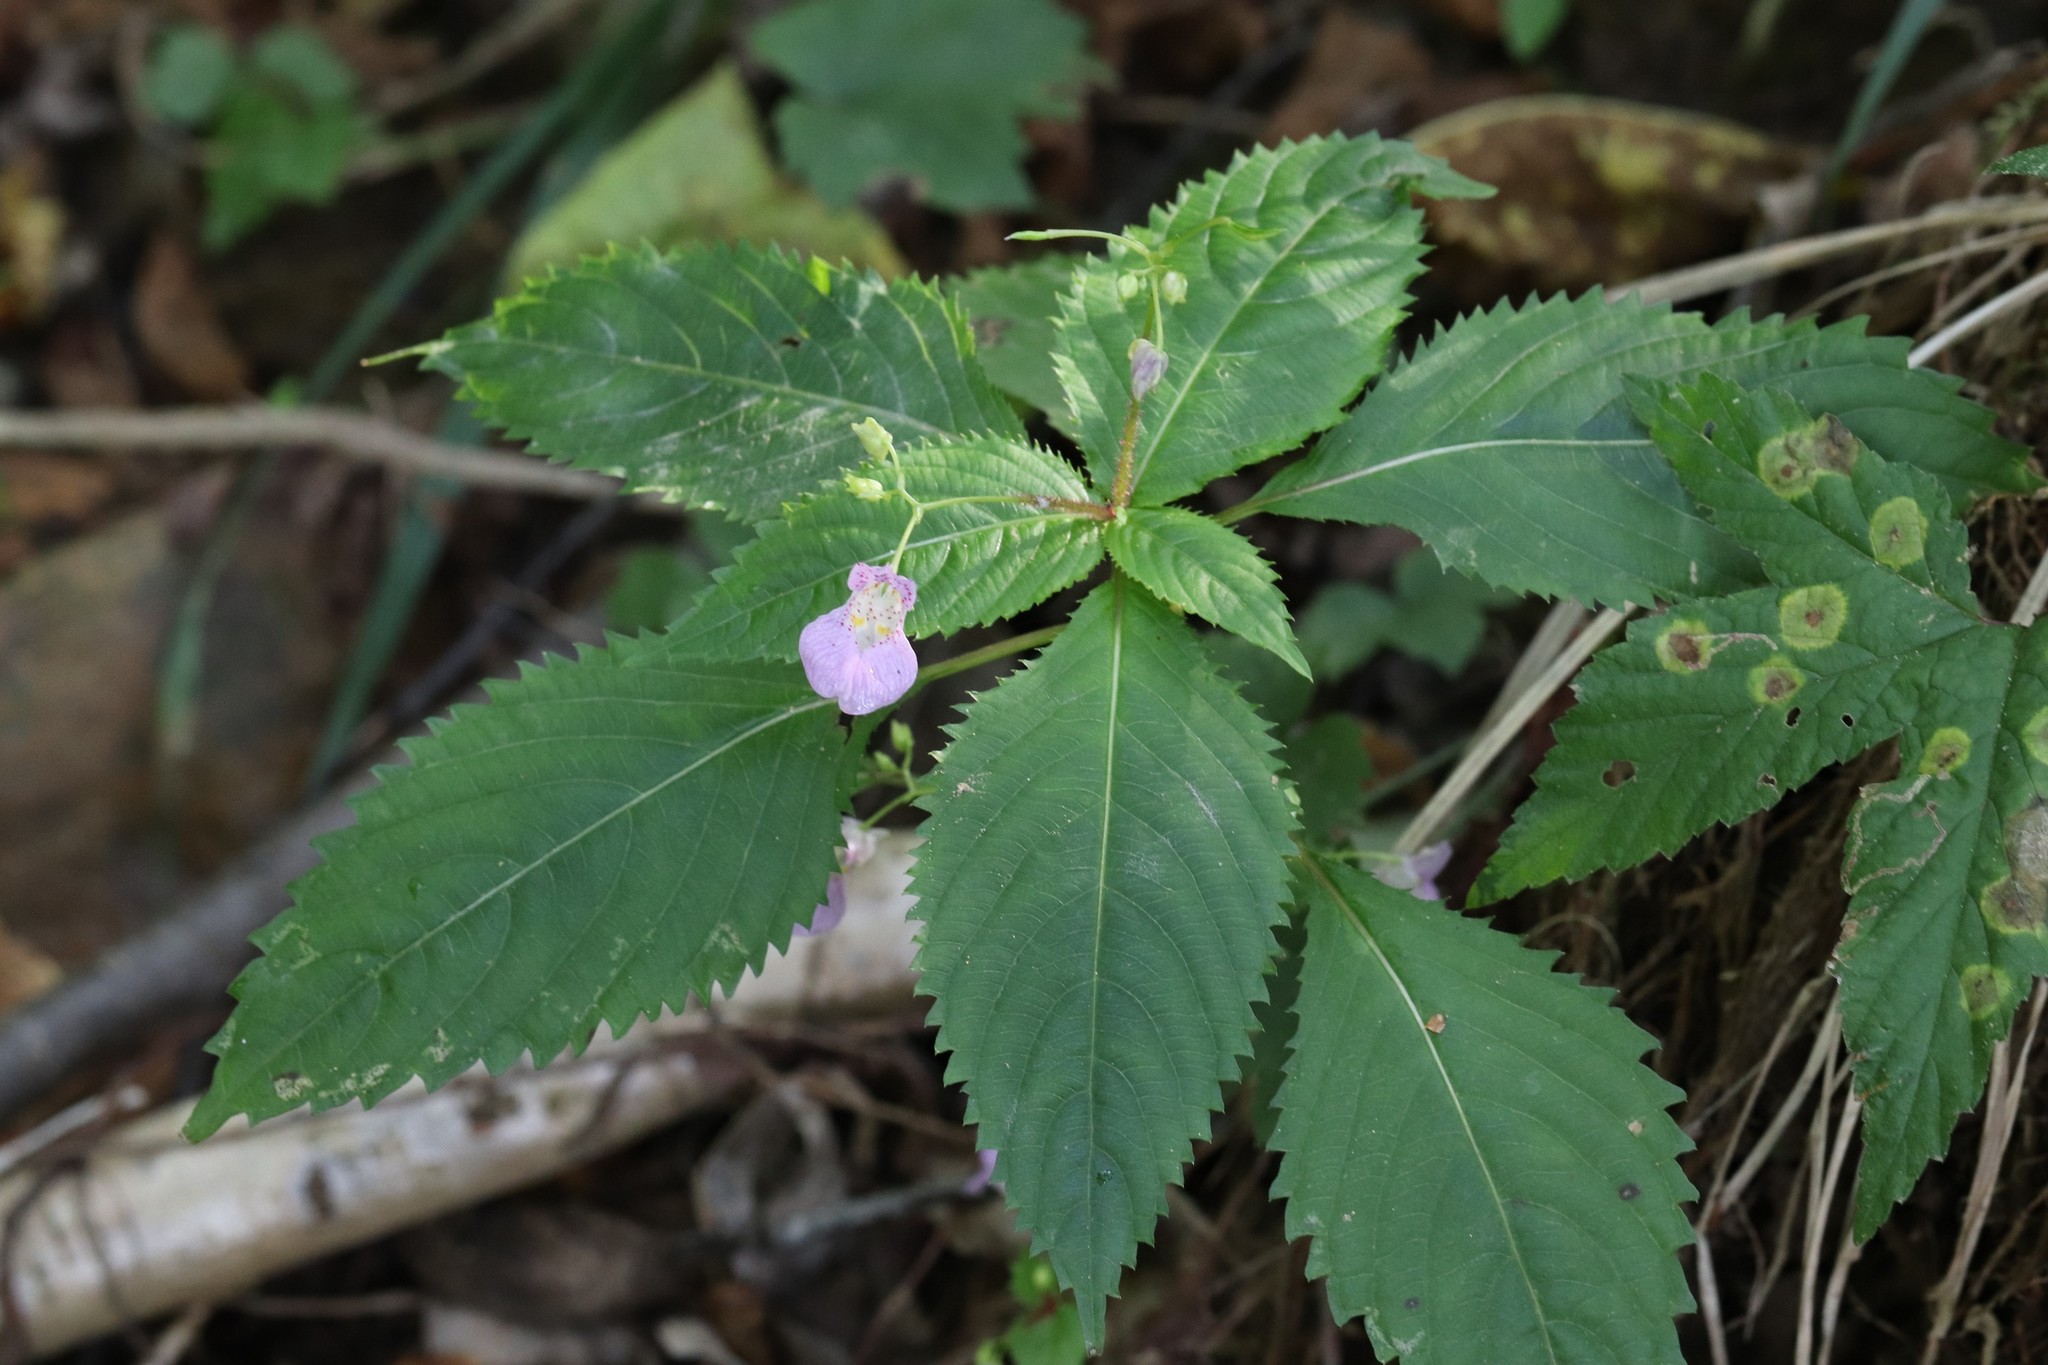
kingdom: Plantae
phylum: Tracheophyta
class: Magnoliopsida
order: Ericales
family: Balsaminaceae
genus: Impatiens
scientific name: Impatiens furcillata
